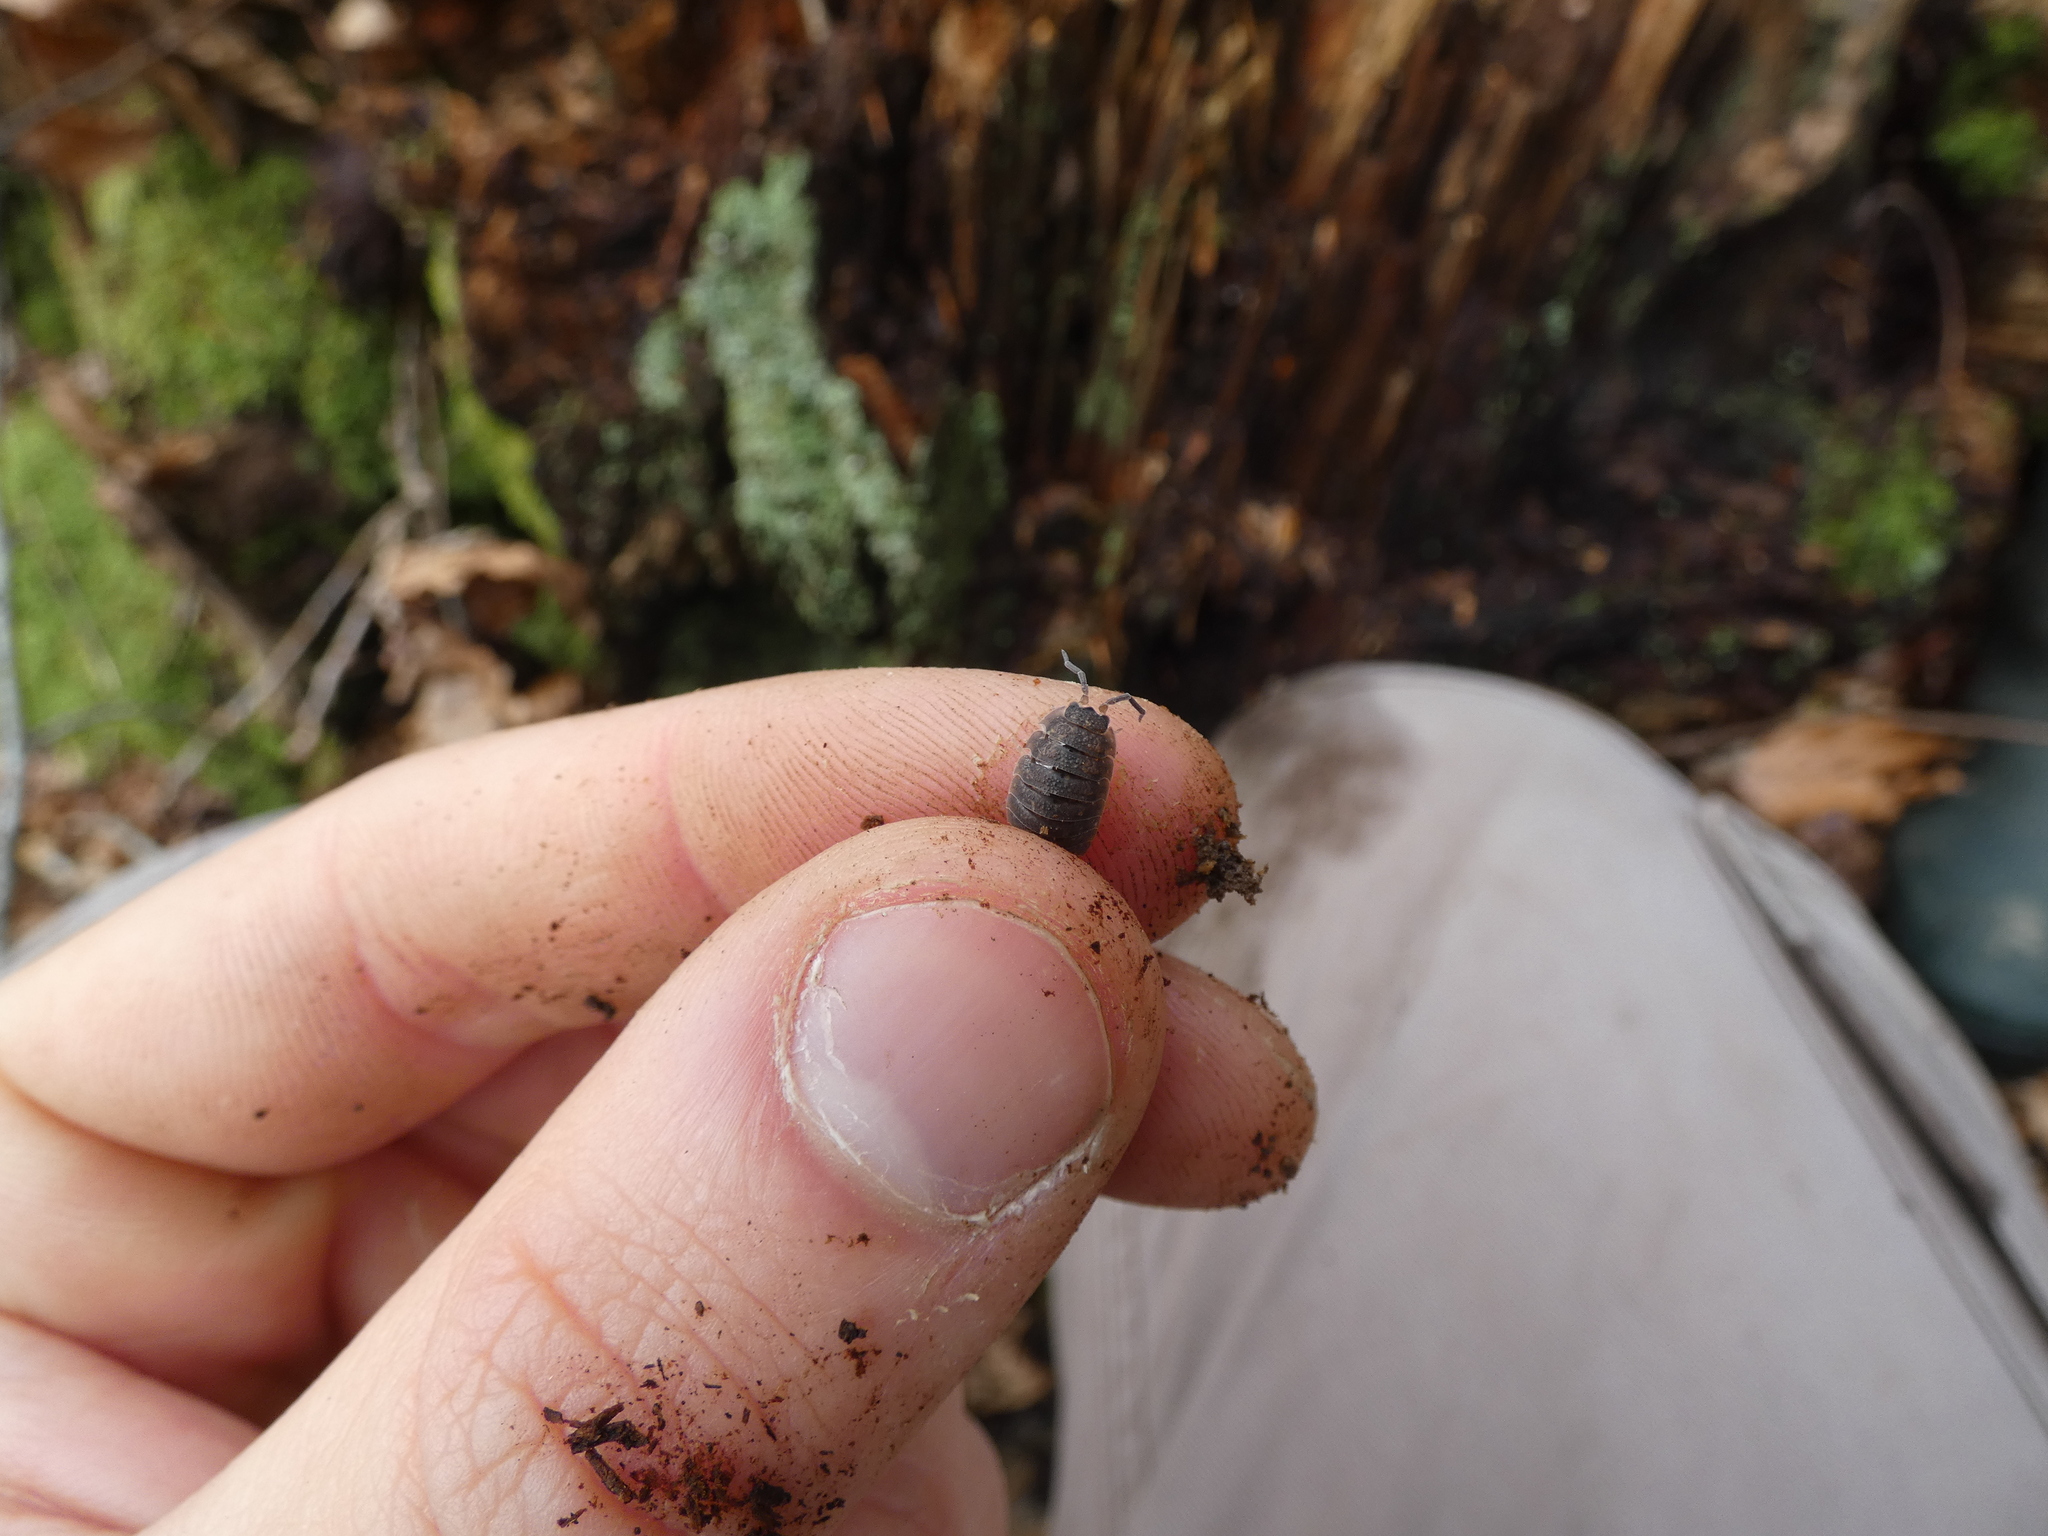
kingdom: Animalia
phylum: Arthropoda
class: Malacostraca
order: Isopoda
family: Porcellionidae
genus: Porcellio
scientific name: Porcellio scaber
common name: Common rough woodlouse
